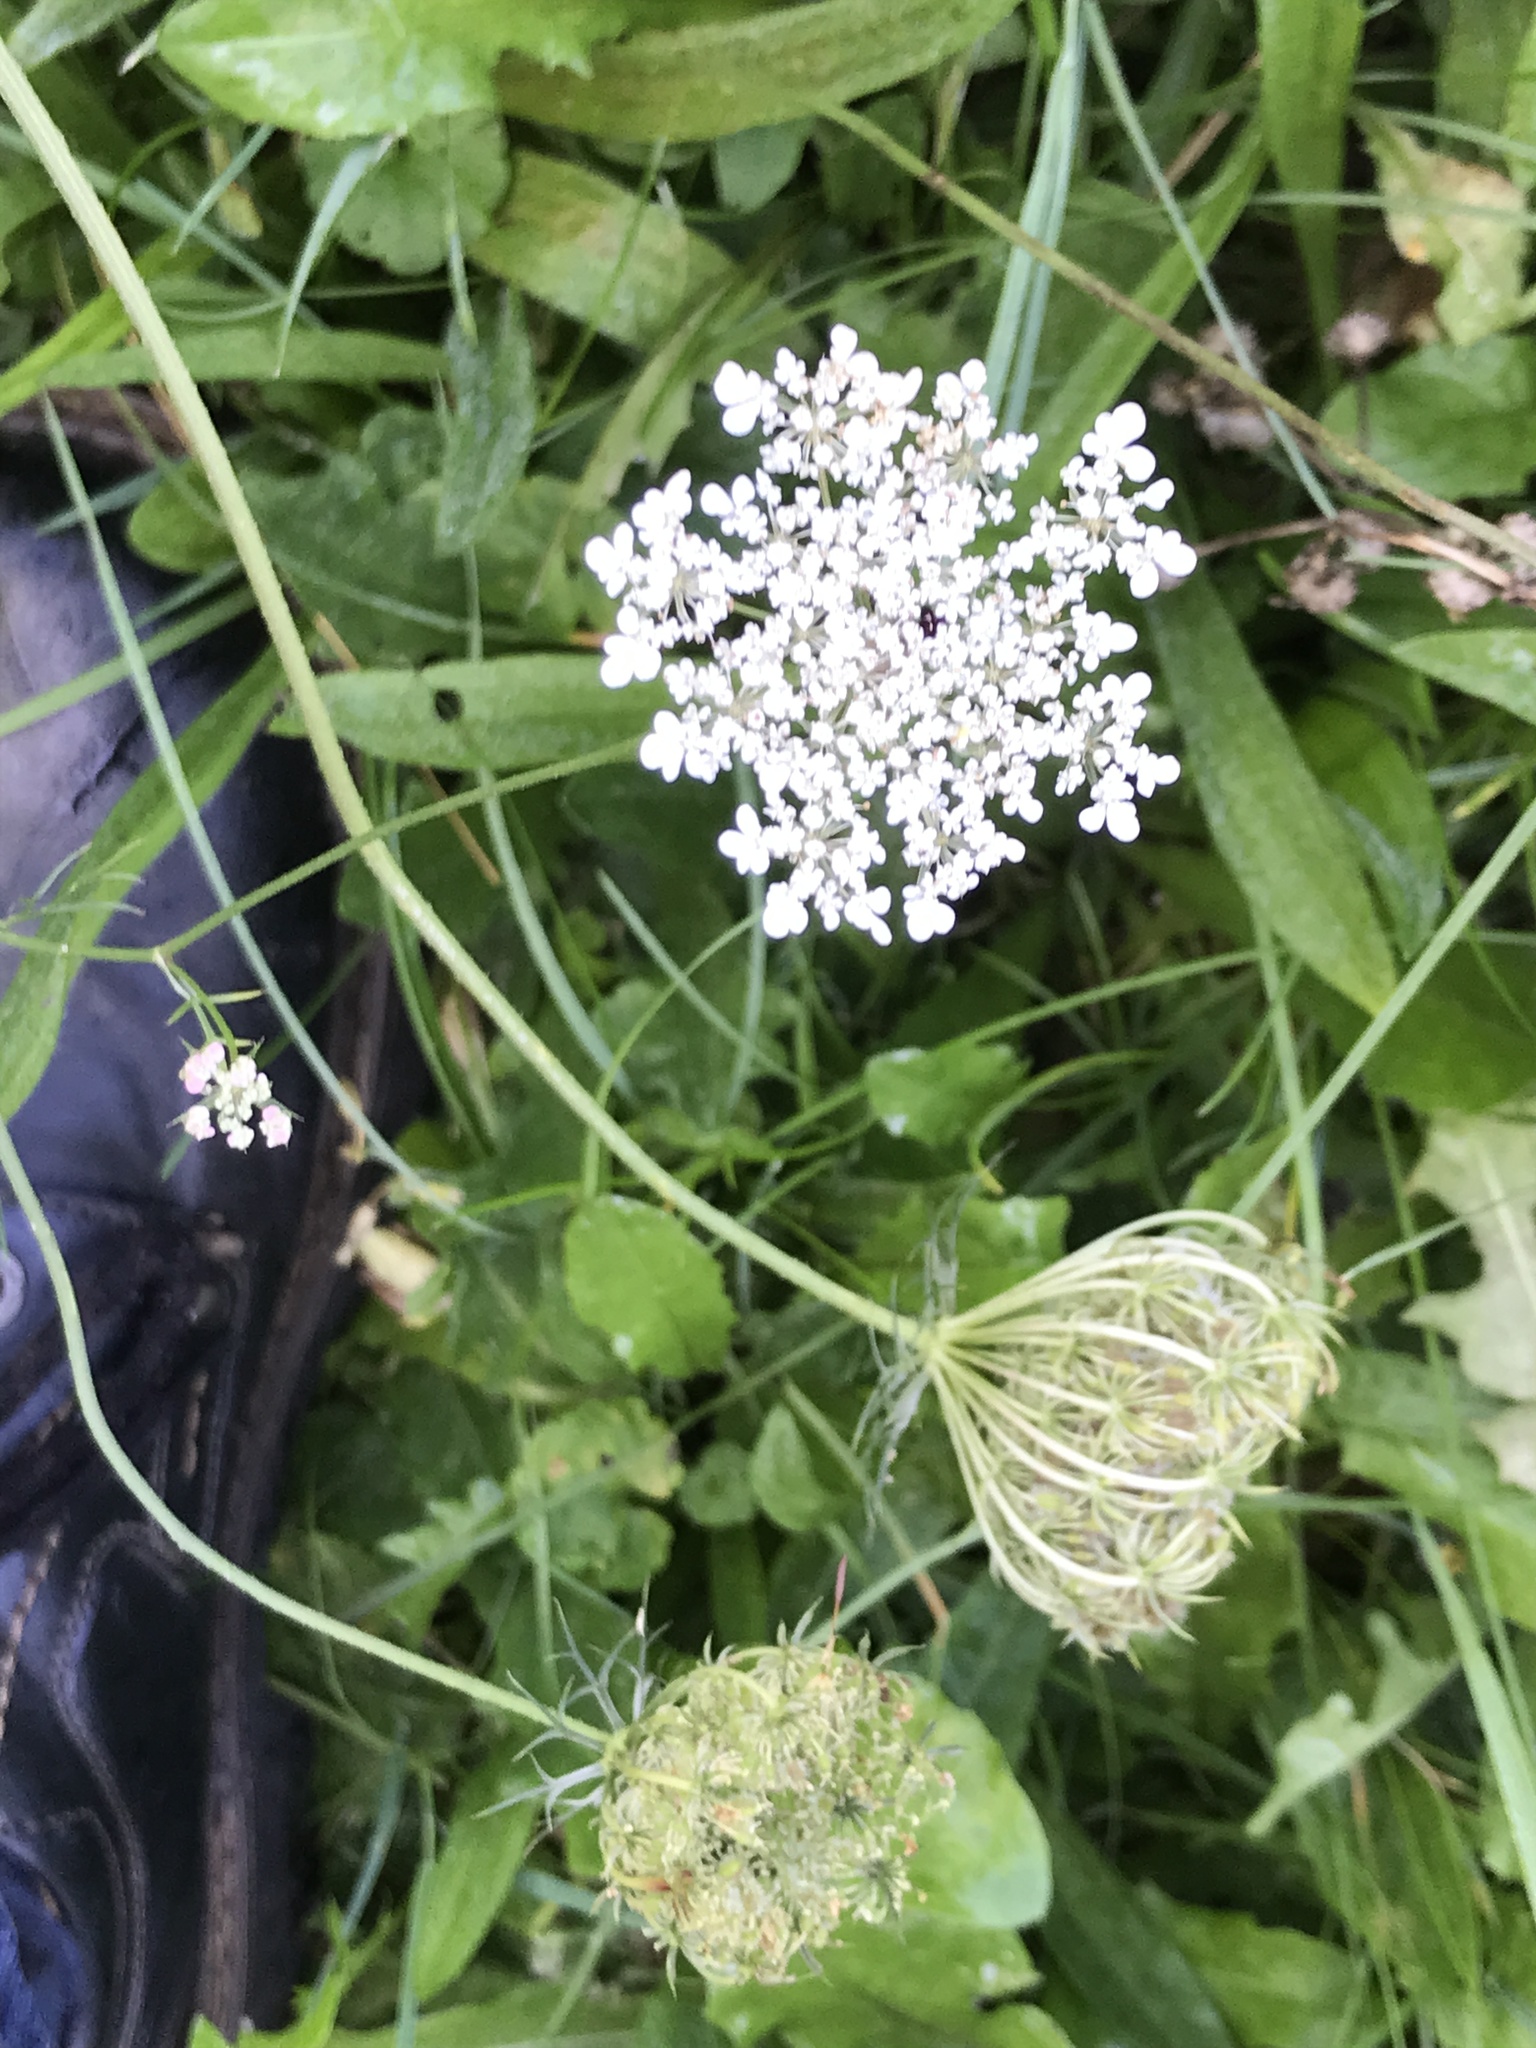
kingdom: Plantae
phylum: Tracheophyta
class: Magnoliopsida
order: Apiales
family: Apiaceae
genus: Daucus
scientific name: Daucus carota
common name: Wild carrot
